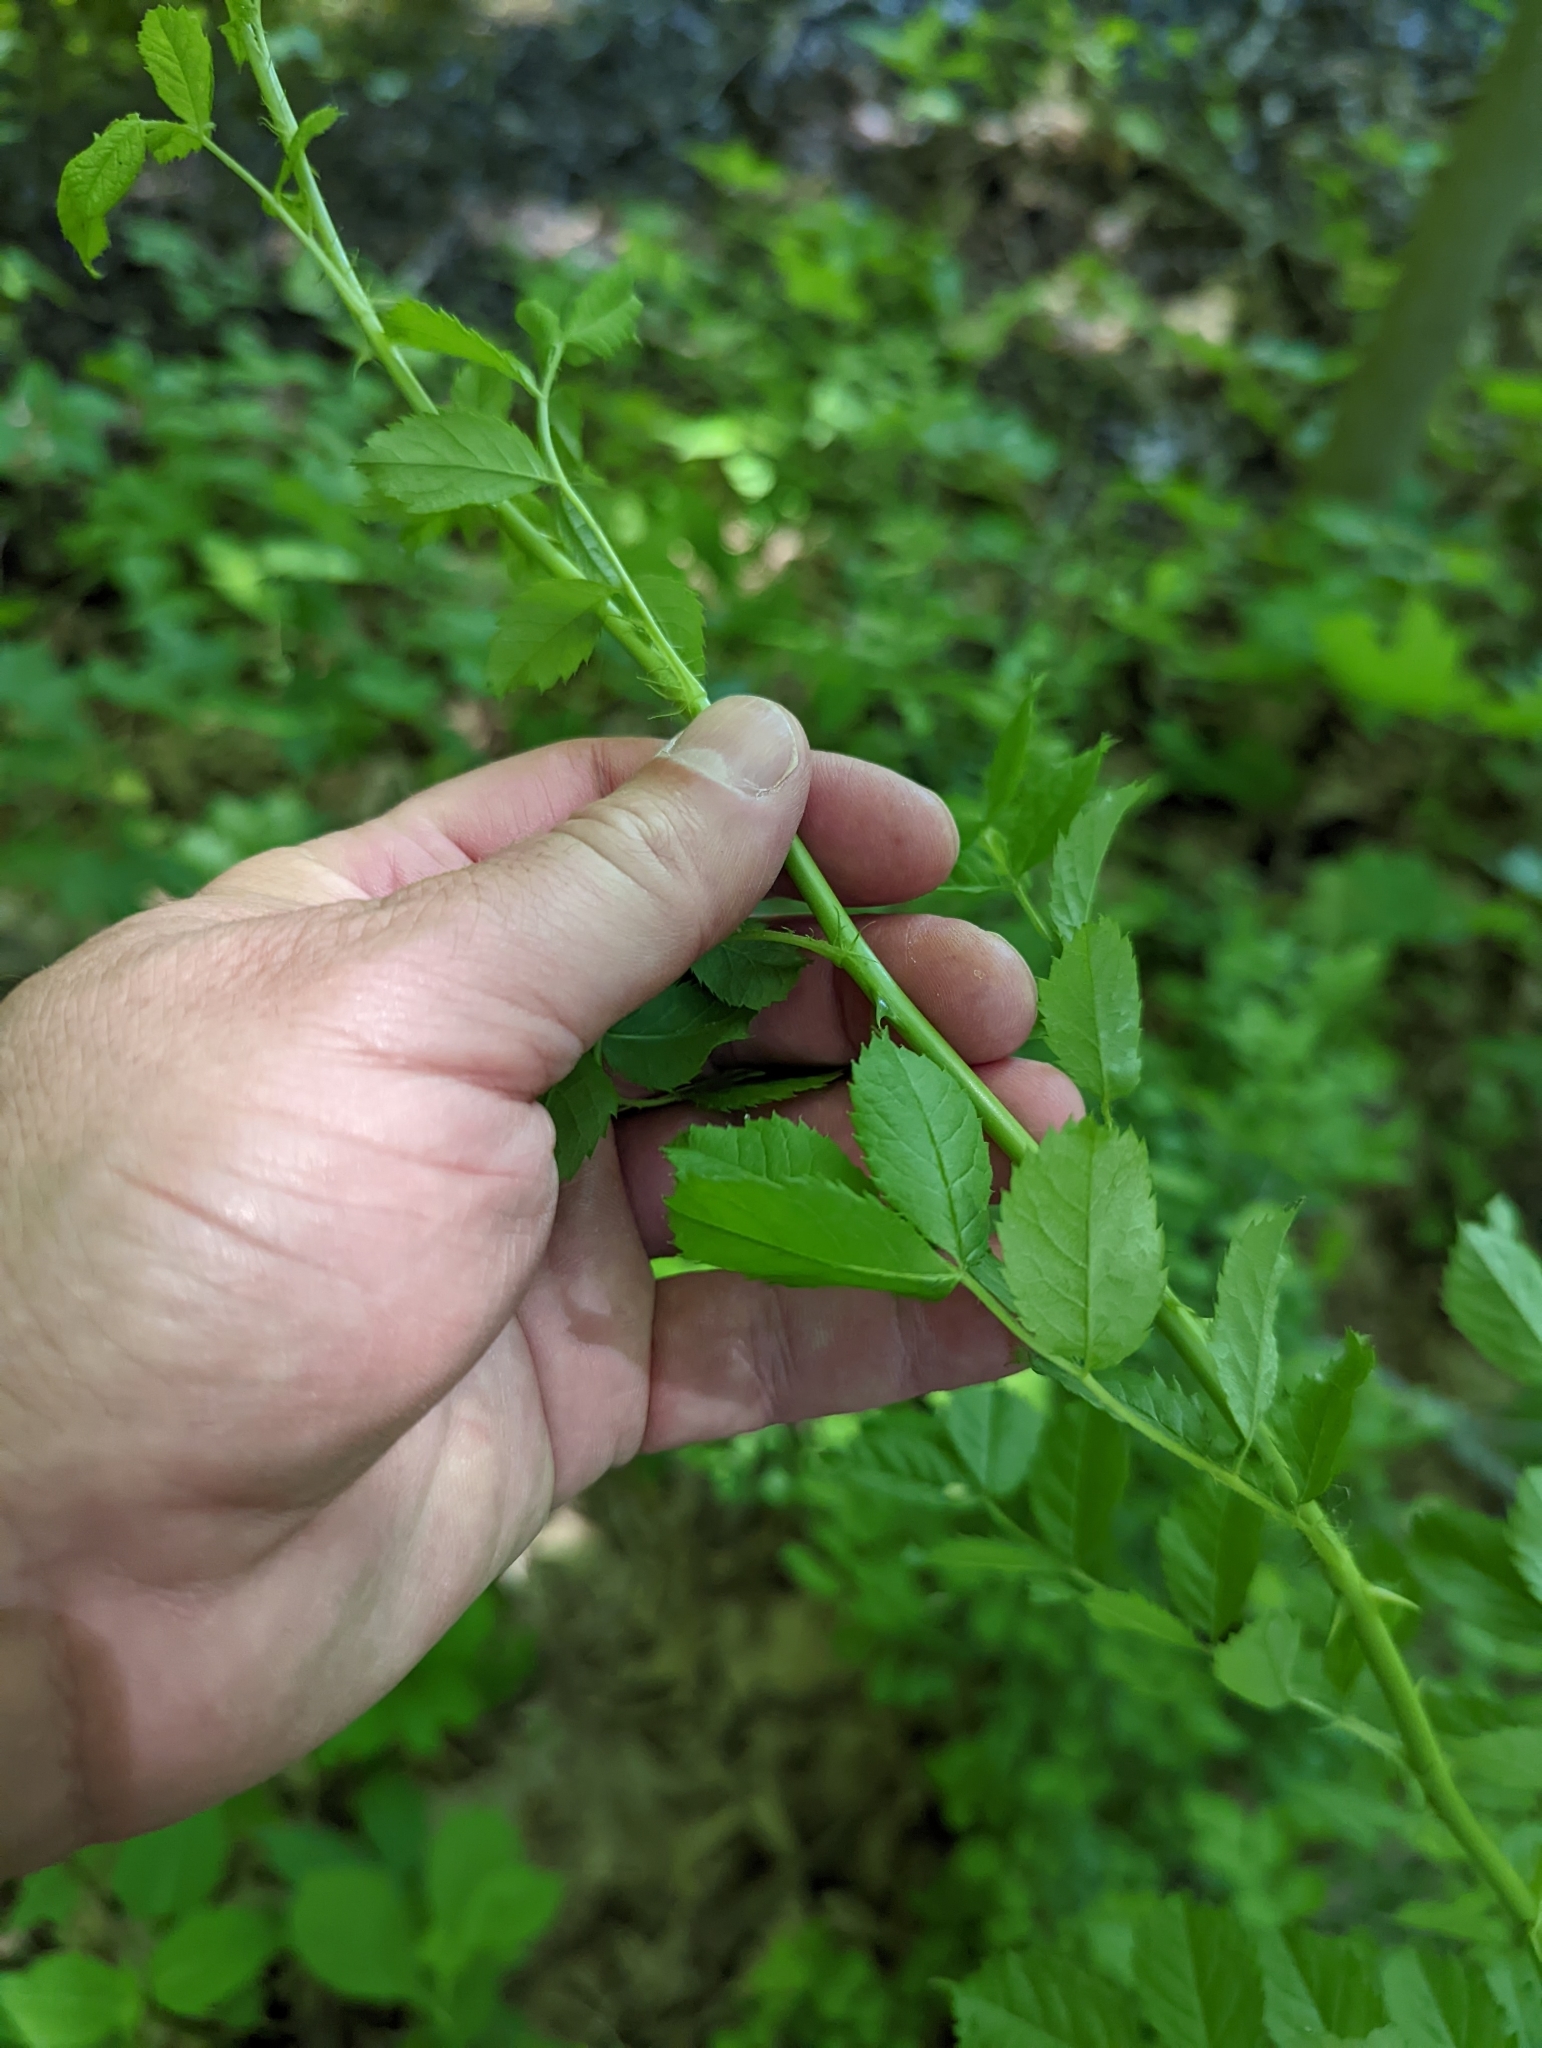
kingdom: Plantae
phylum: Tracheophyta
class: Magnoliopsida
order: Rosales
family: Rosaceae
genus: Rosa
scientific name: Rosa multiflora
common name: Multiflora rose
